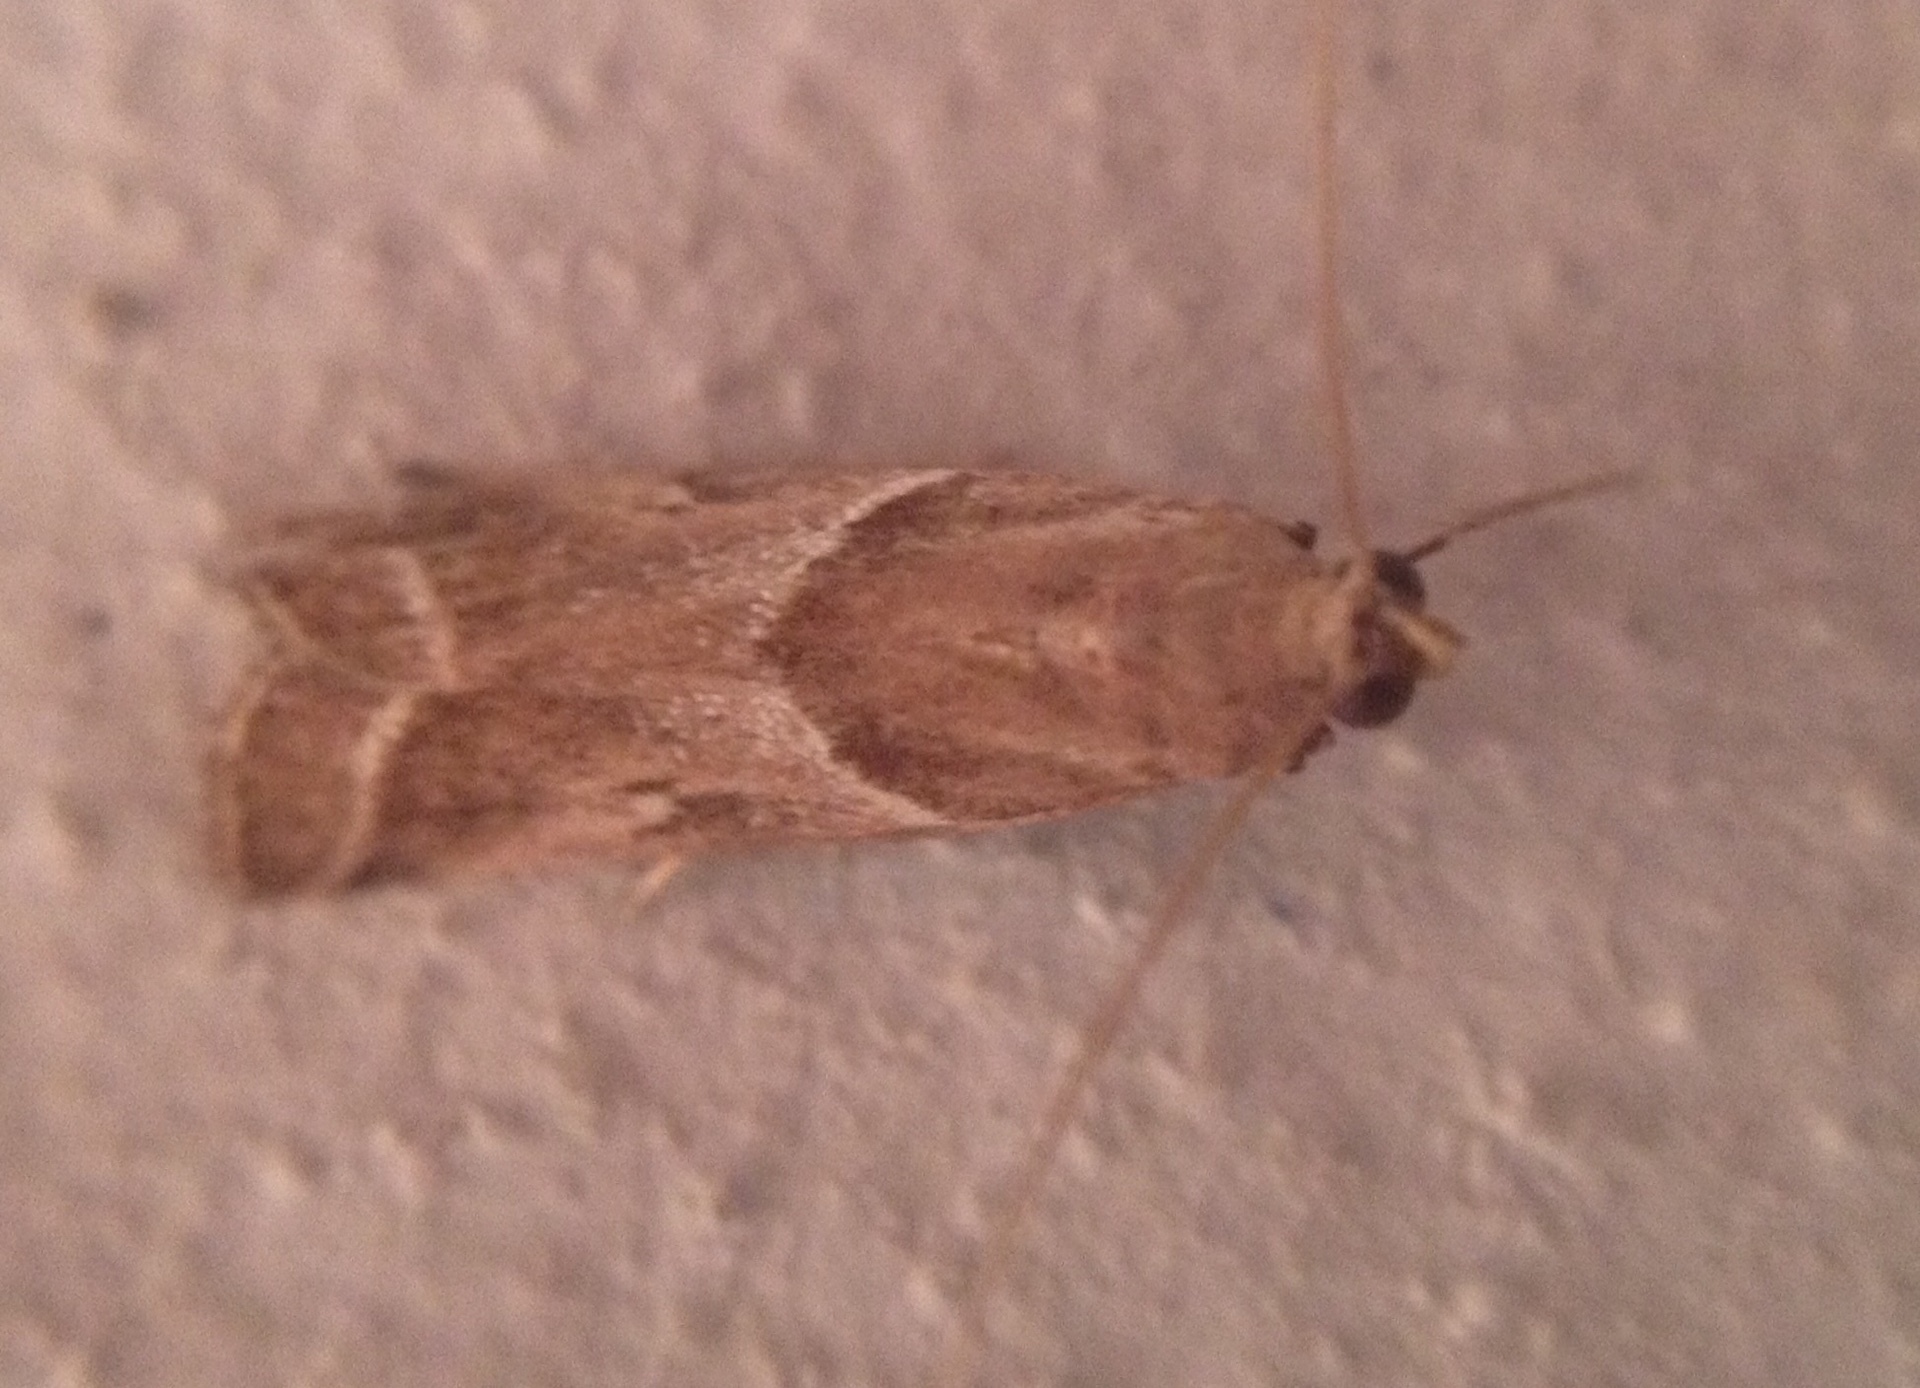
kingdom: Animalia
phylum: Arthropoda
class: Insecta
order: Lepidoptera
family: Pyralidae
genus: Nyctegretis
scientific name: Nyctegretis lineana
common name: Agate knot-horn
